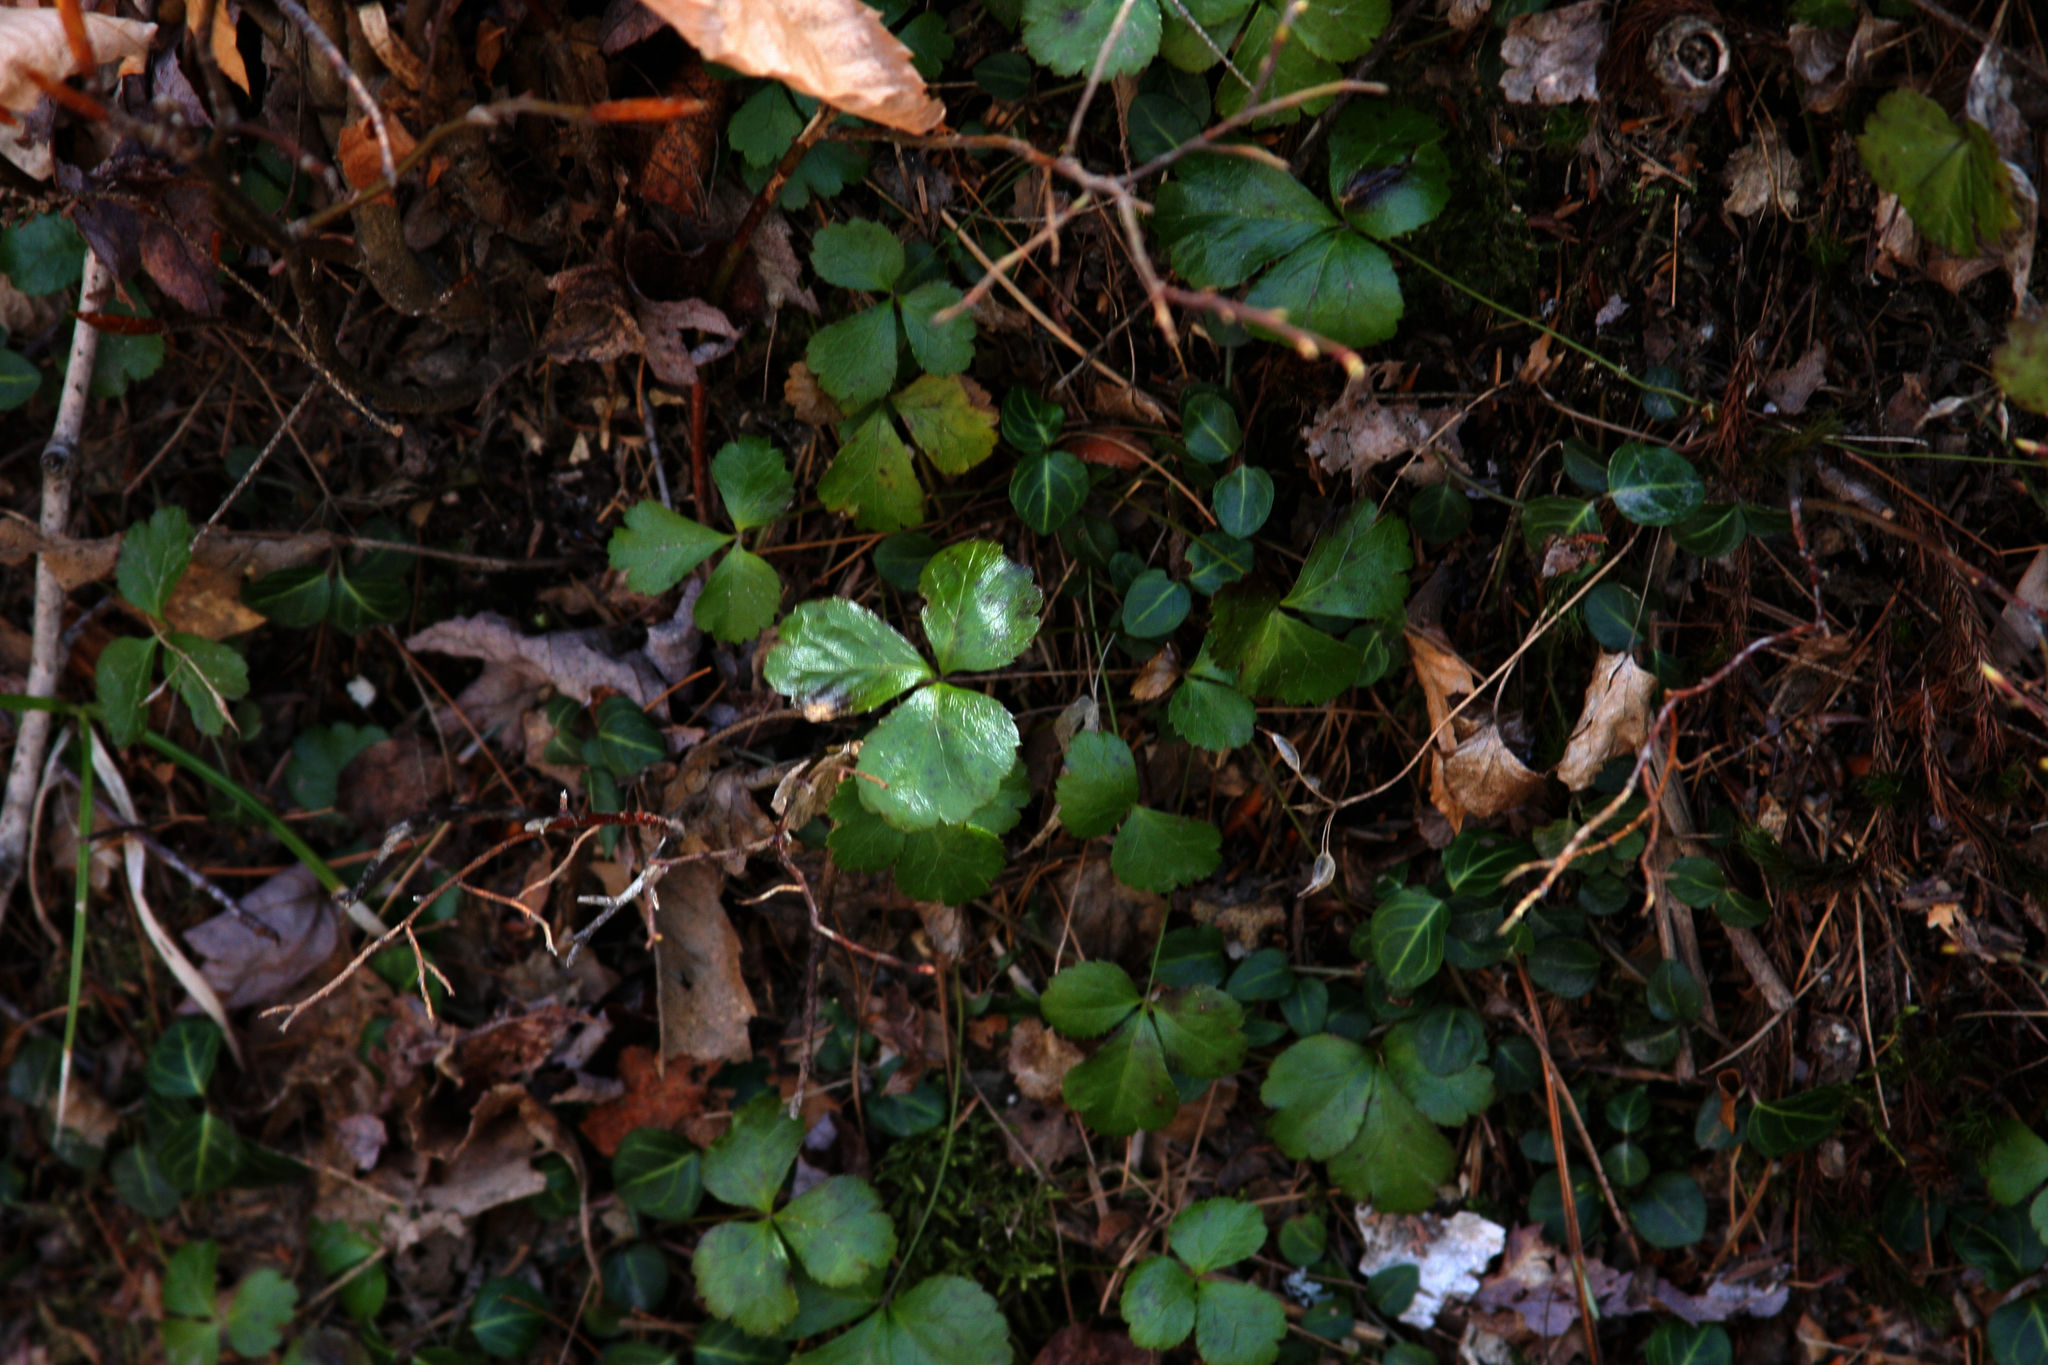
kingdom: Plantae
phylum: Tracheophyta
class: Magnoliopsida
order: Ranunculales
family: Ranunculaceae
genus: Coptis
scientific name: Coptis trifolia
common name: Canker-root
